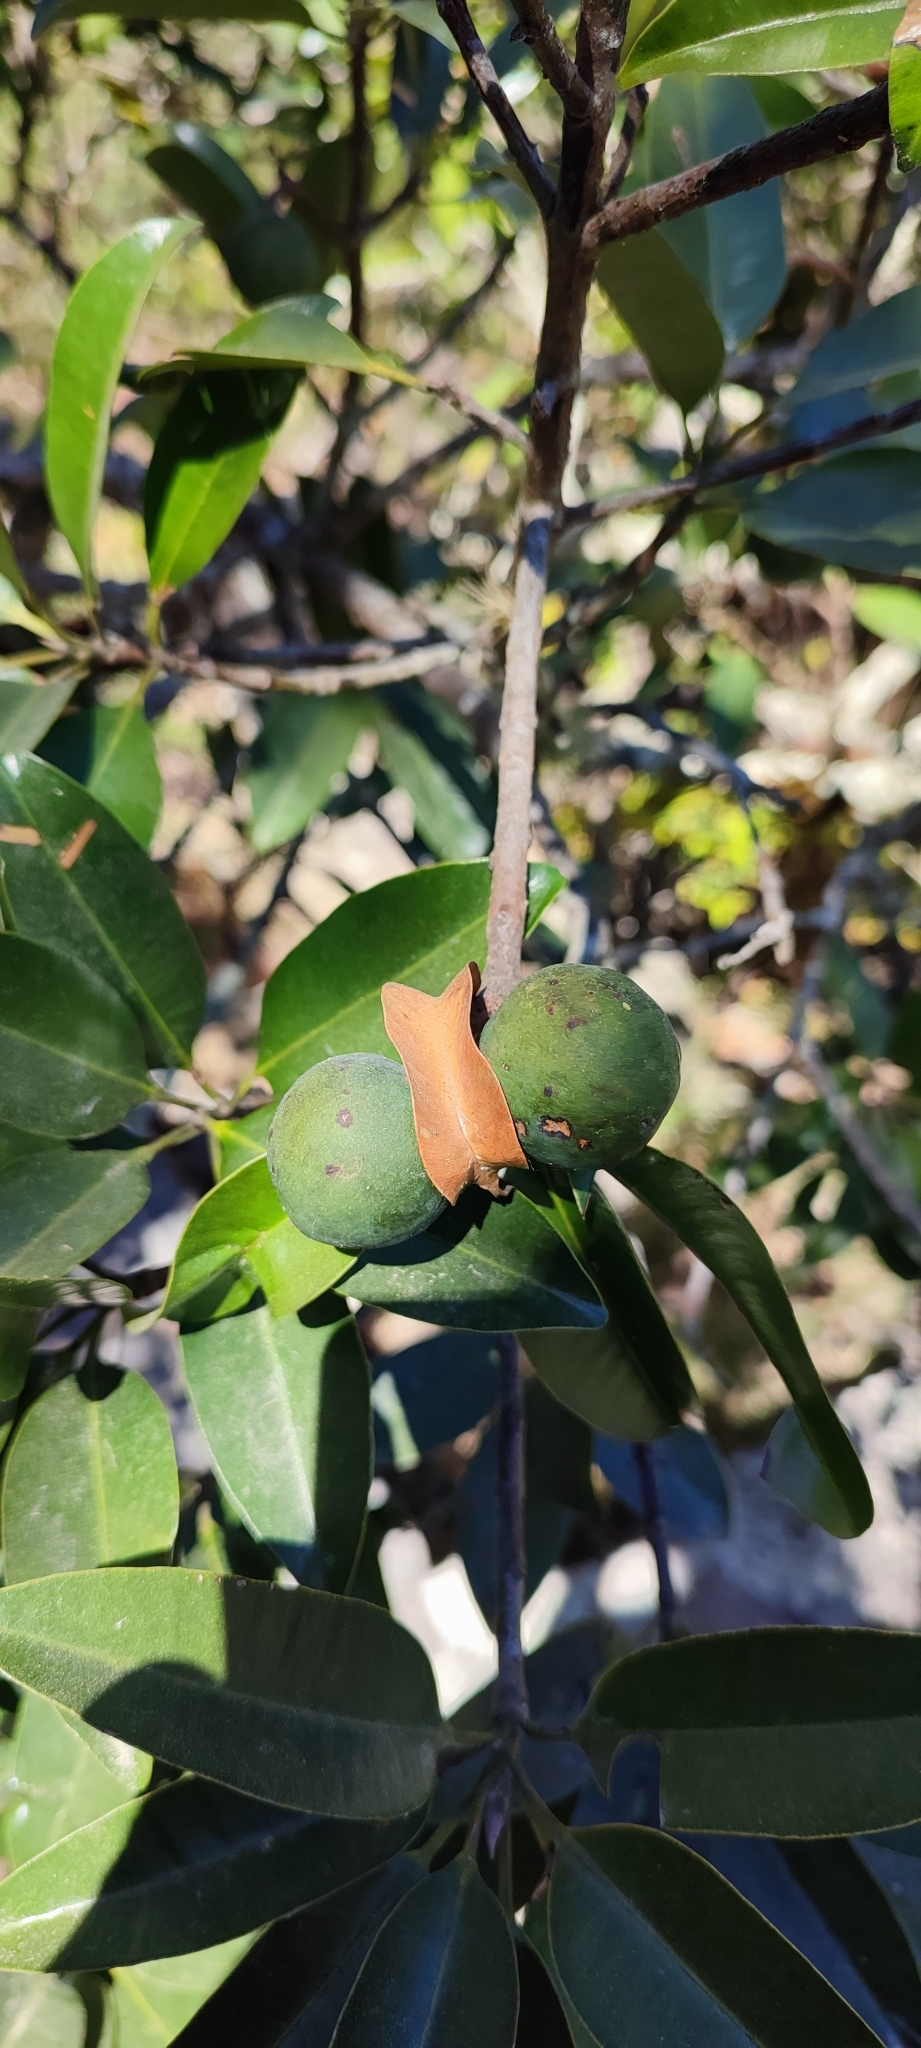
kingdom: Plantae
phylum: Tracheophyta
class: Magnoliopsida
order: Malpighiales
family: Calophyllaceae
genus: Calophyllum
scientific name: Calophyllum brasiliense
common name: Santa maria
